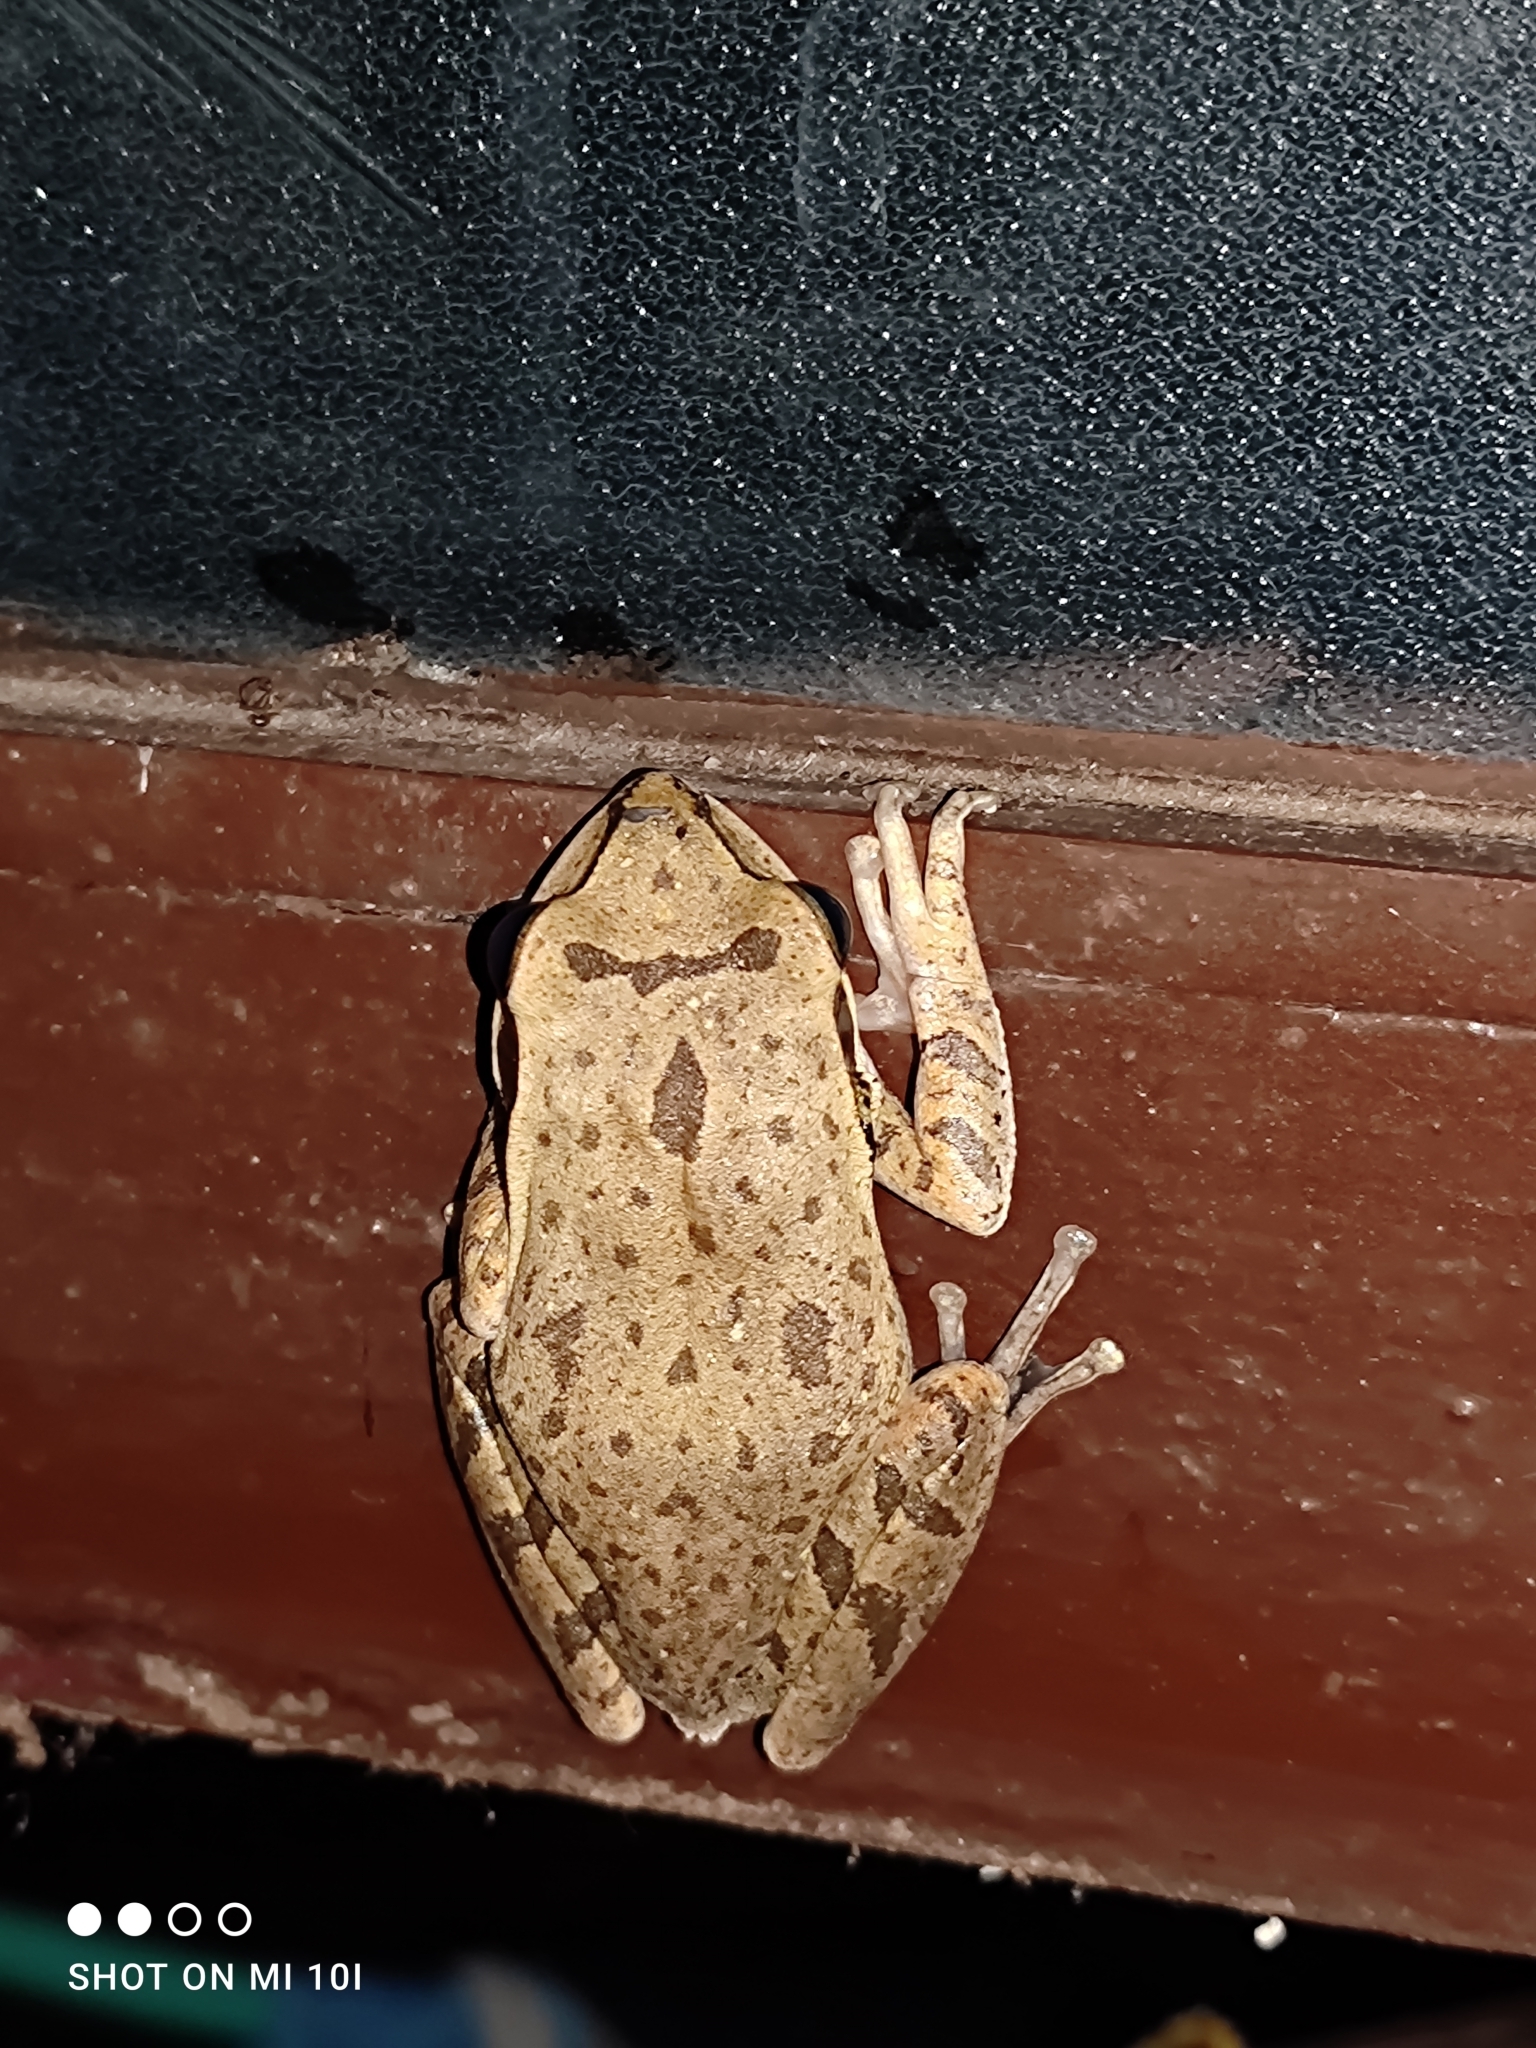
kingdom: Animalia
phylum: Chordata
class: Amphibia
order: Anura
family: Rhacophoridae
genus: Polypedates
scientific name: Polypedates maculatus
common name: Himalayan tree frog
